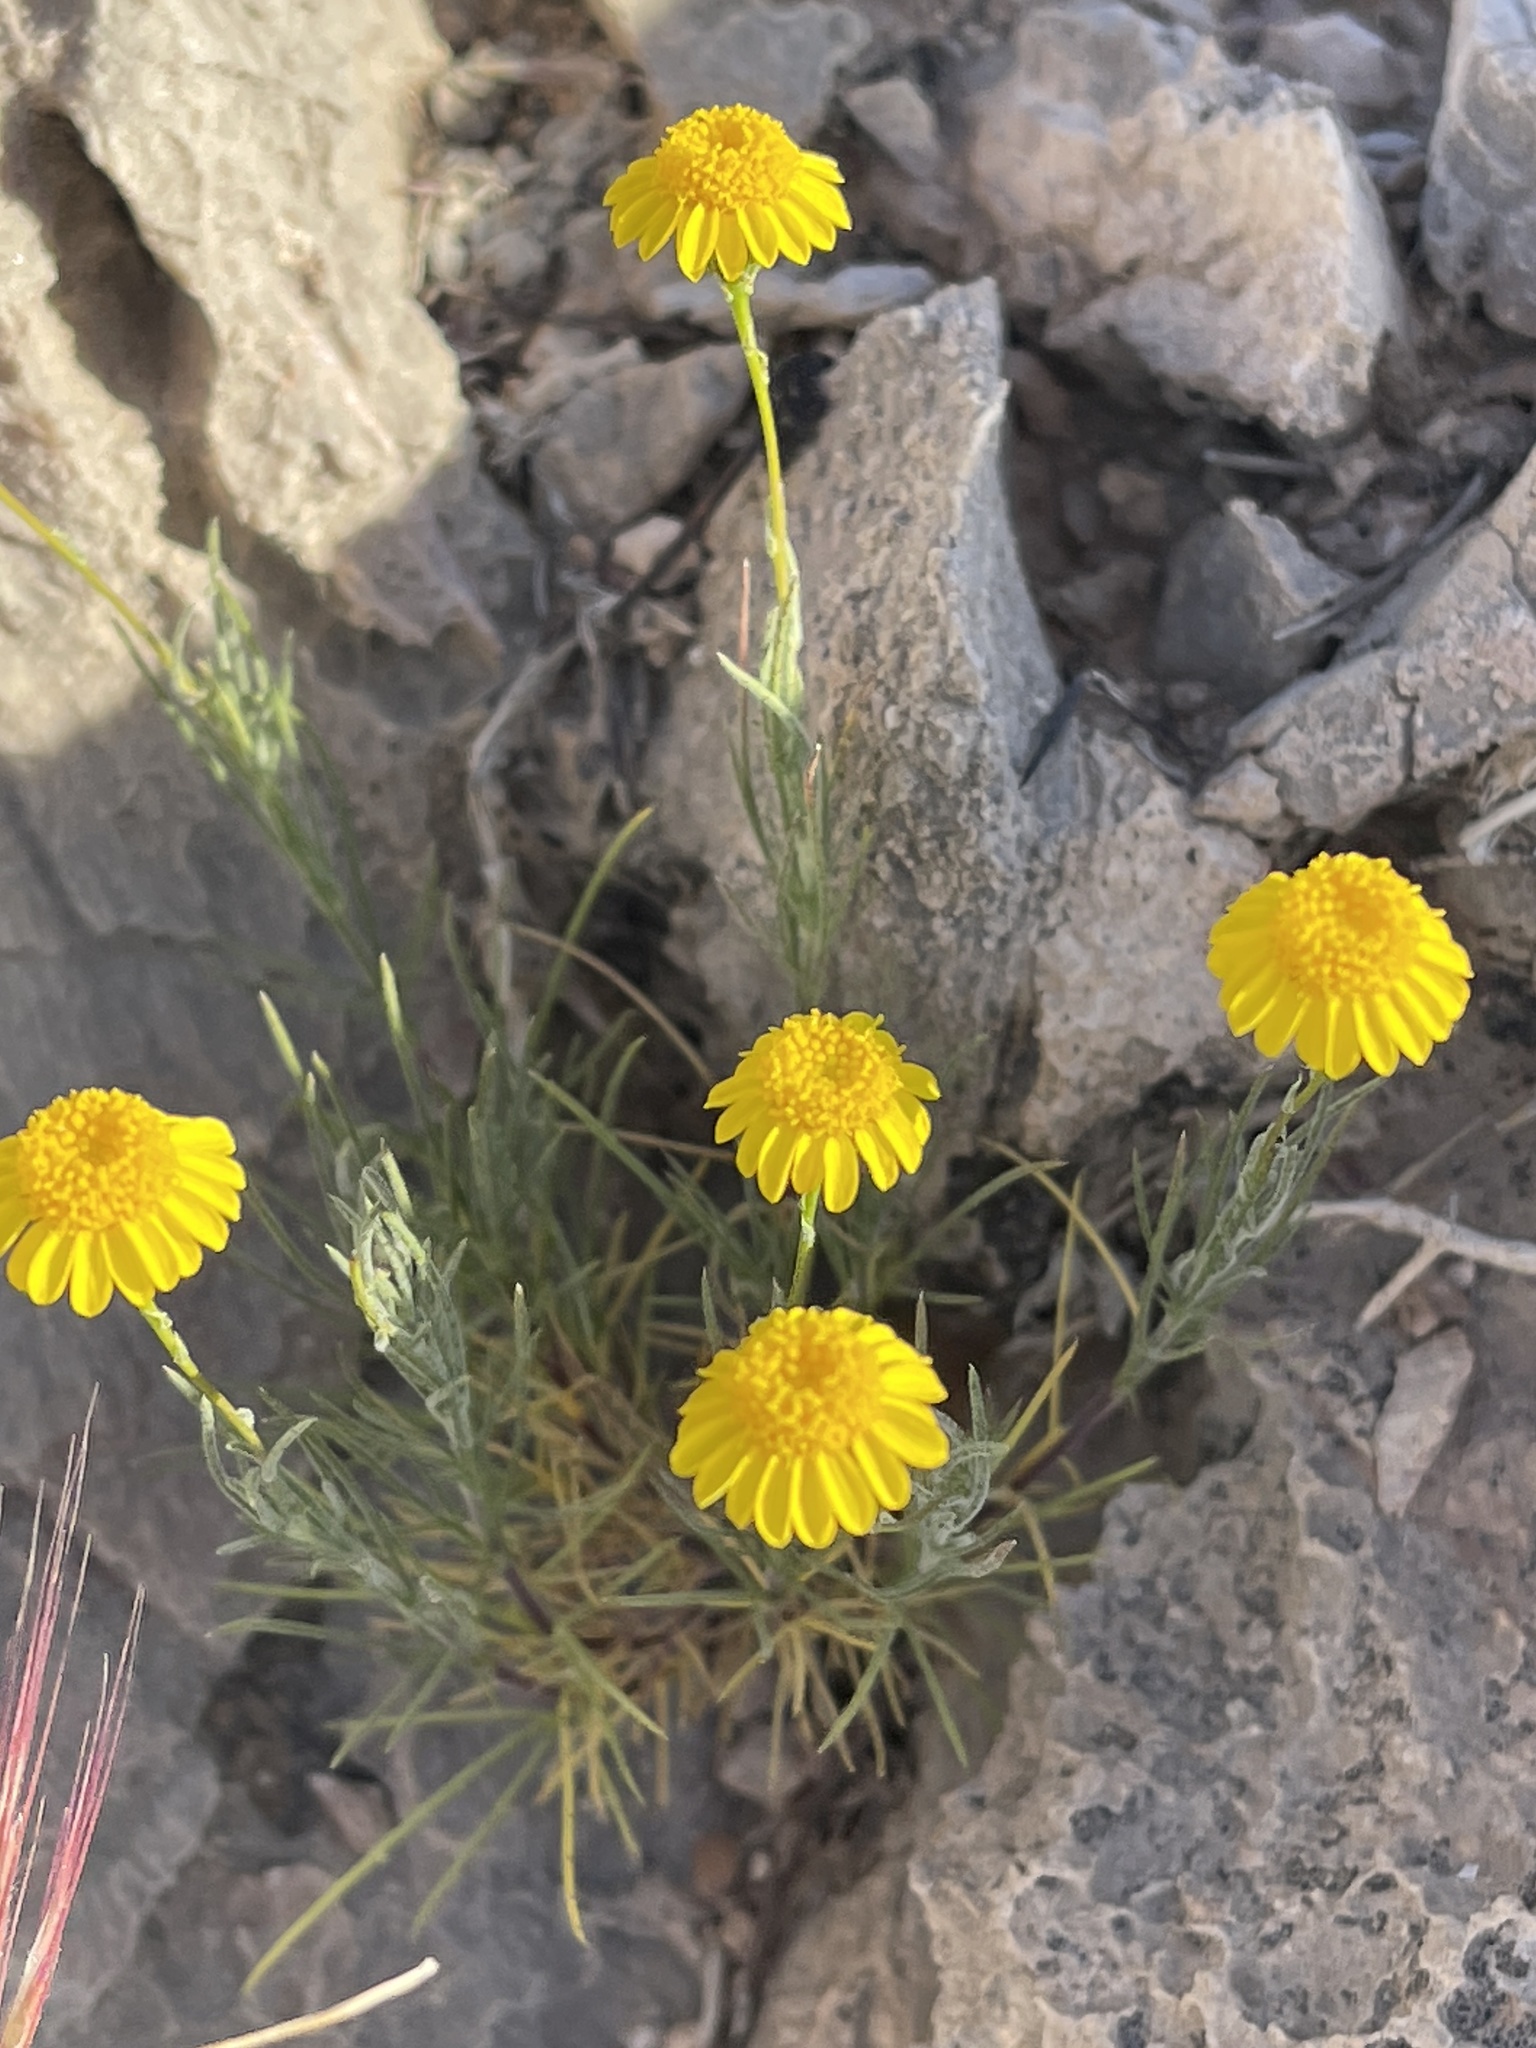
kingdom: Plantae
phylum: Tracheophyta
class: Magnoliopsida
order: Asterales
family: Asteraceae
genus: Thymophylla
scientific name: Thymophylla pentachaeta
